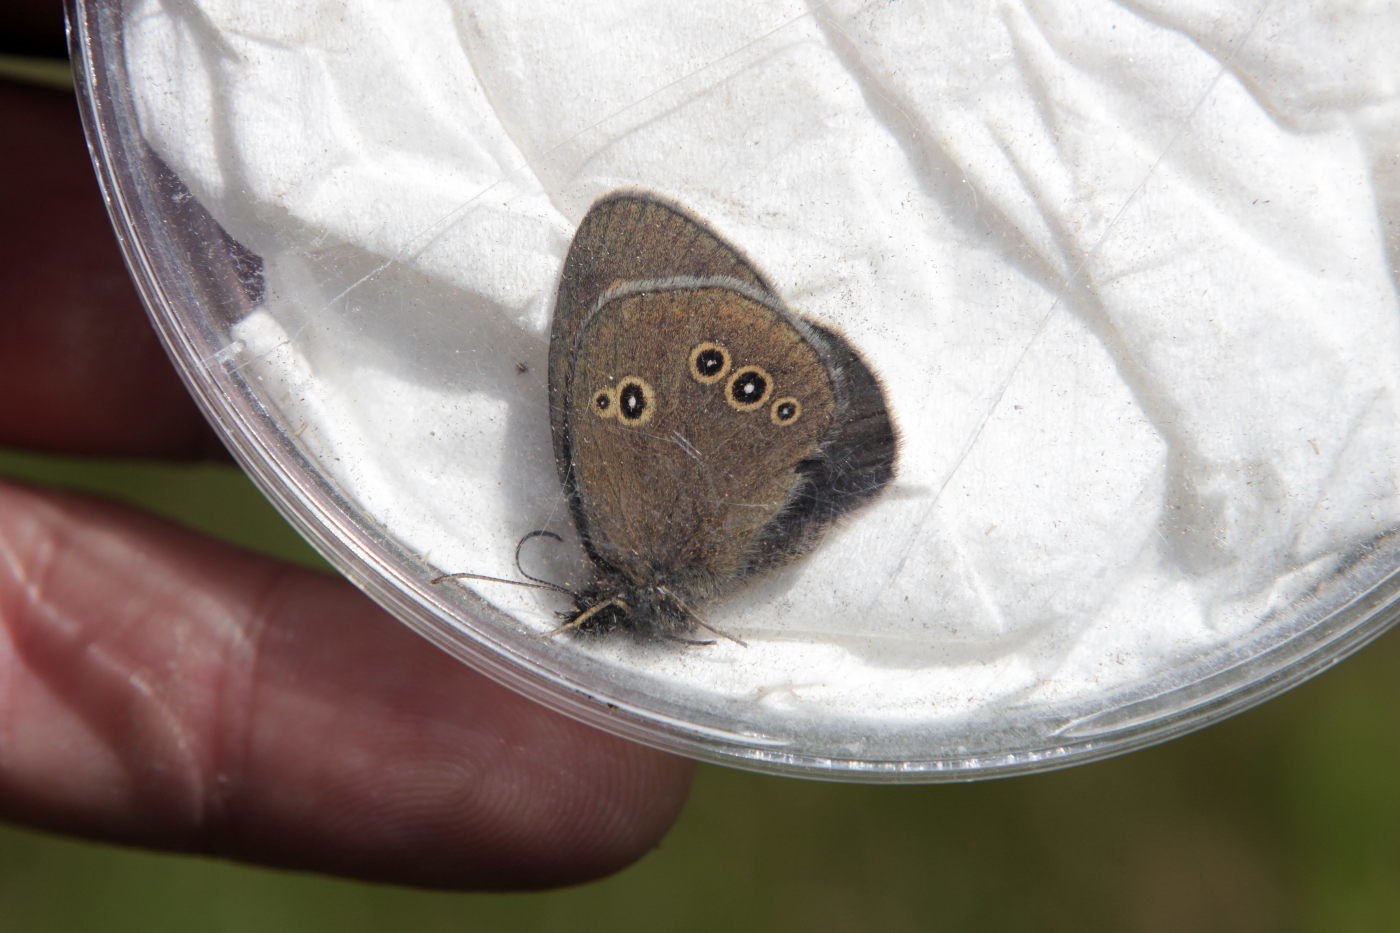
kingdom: Animalia
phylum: Arthropoda
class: Insecta
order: Lepidoptera
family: Nymphalidae
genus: Aphantopus
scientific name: Aphantopus hyperantus
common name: Ringlet
